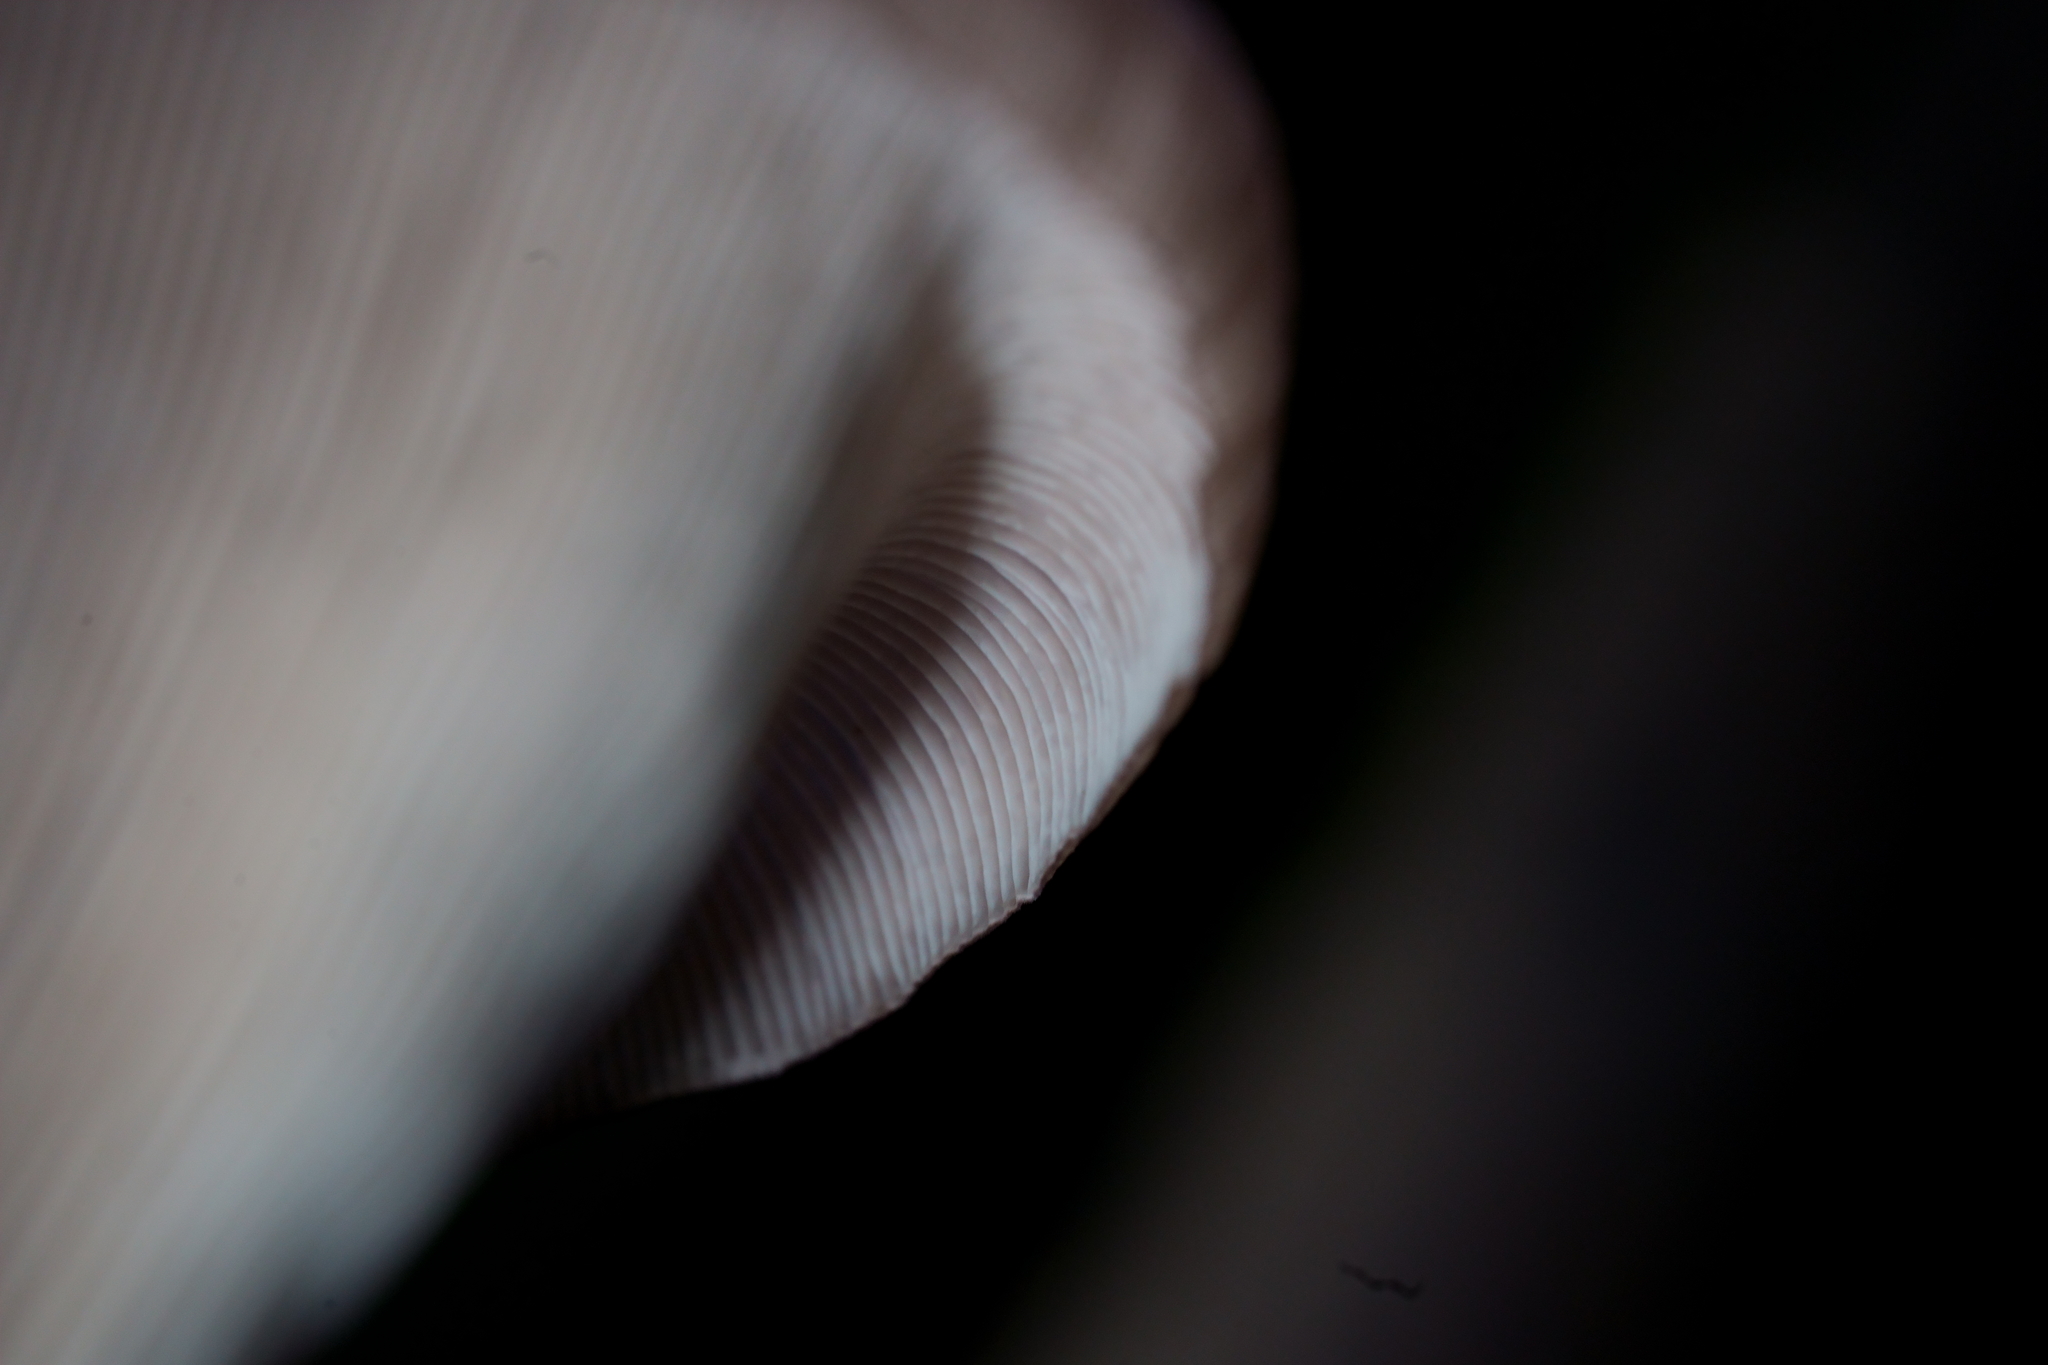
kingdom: Fungi
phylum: Basidiomycota
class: Agaricomycetes
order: Polyporales
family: Polyporaceae
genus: Lentinus
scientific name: Lentinus sajor-caju
